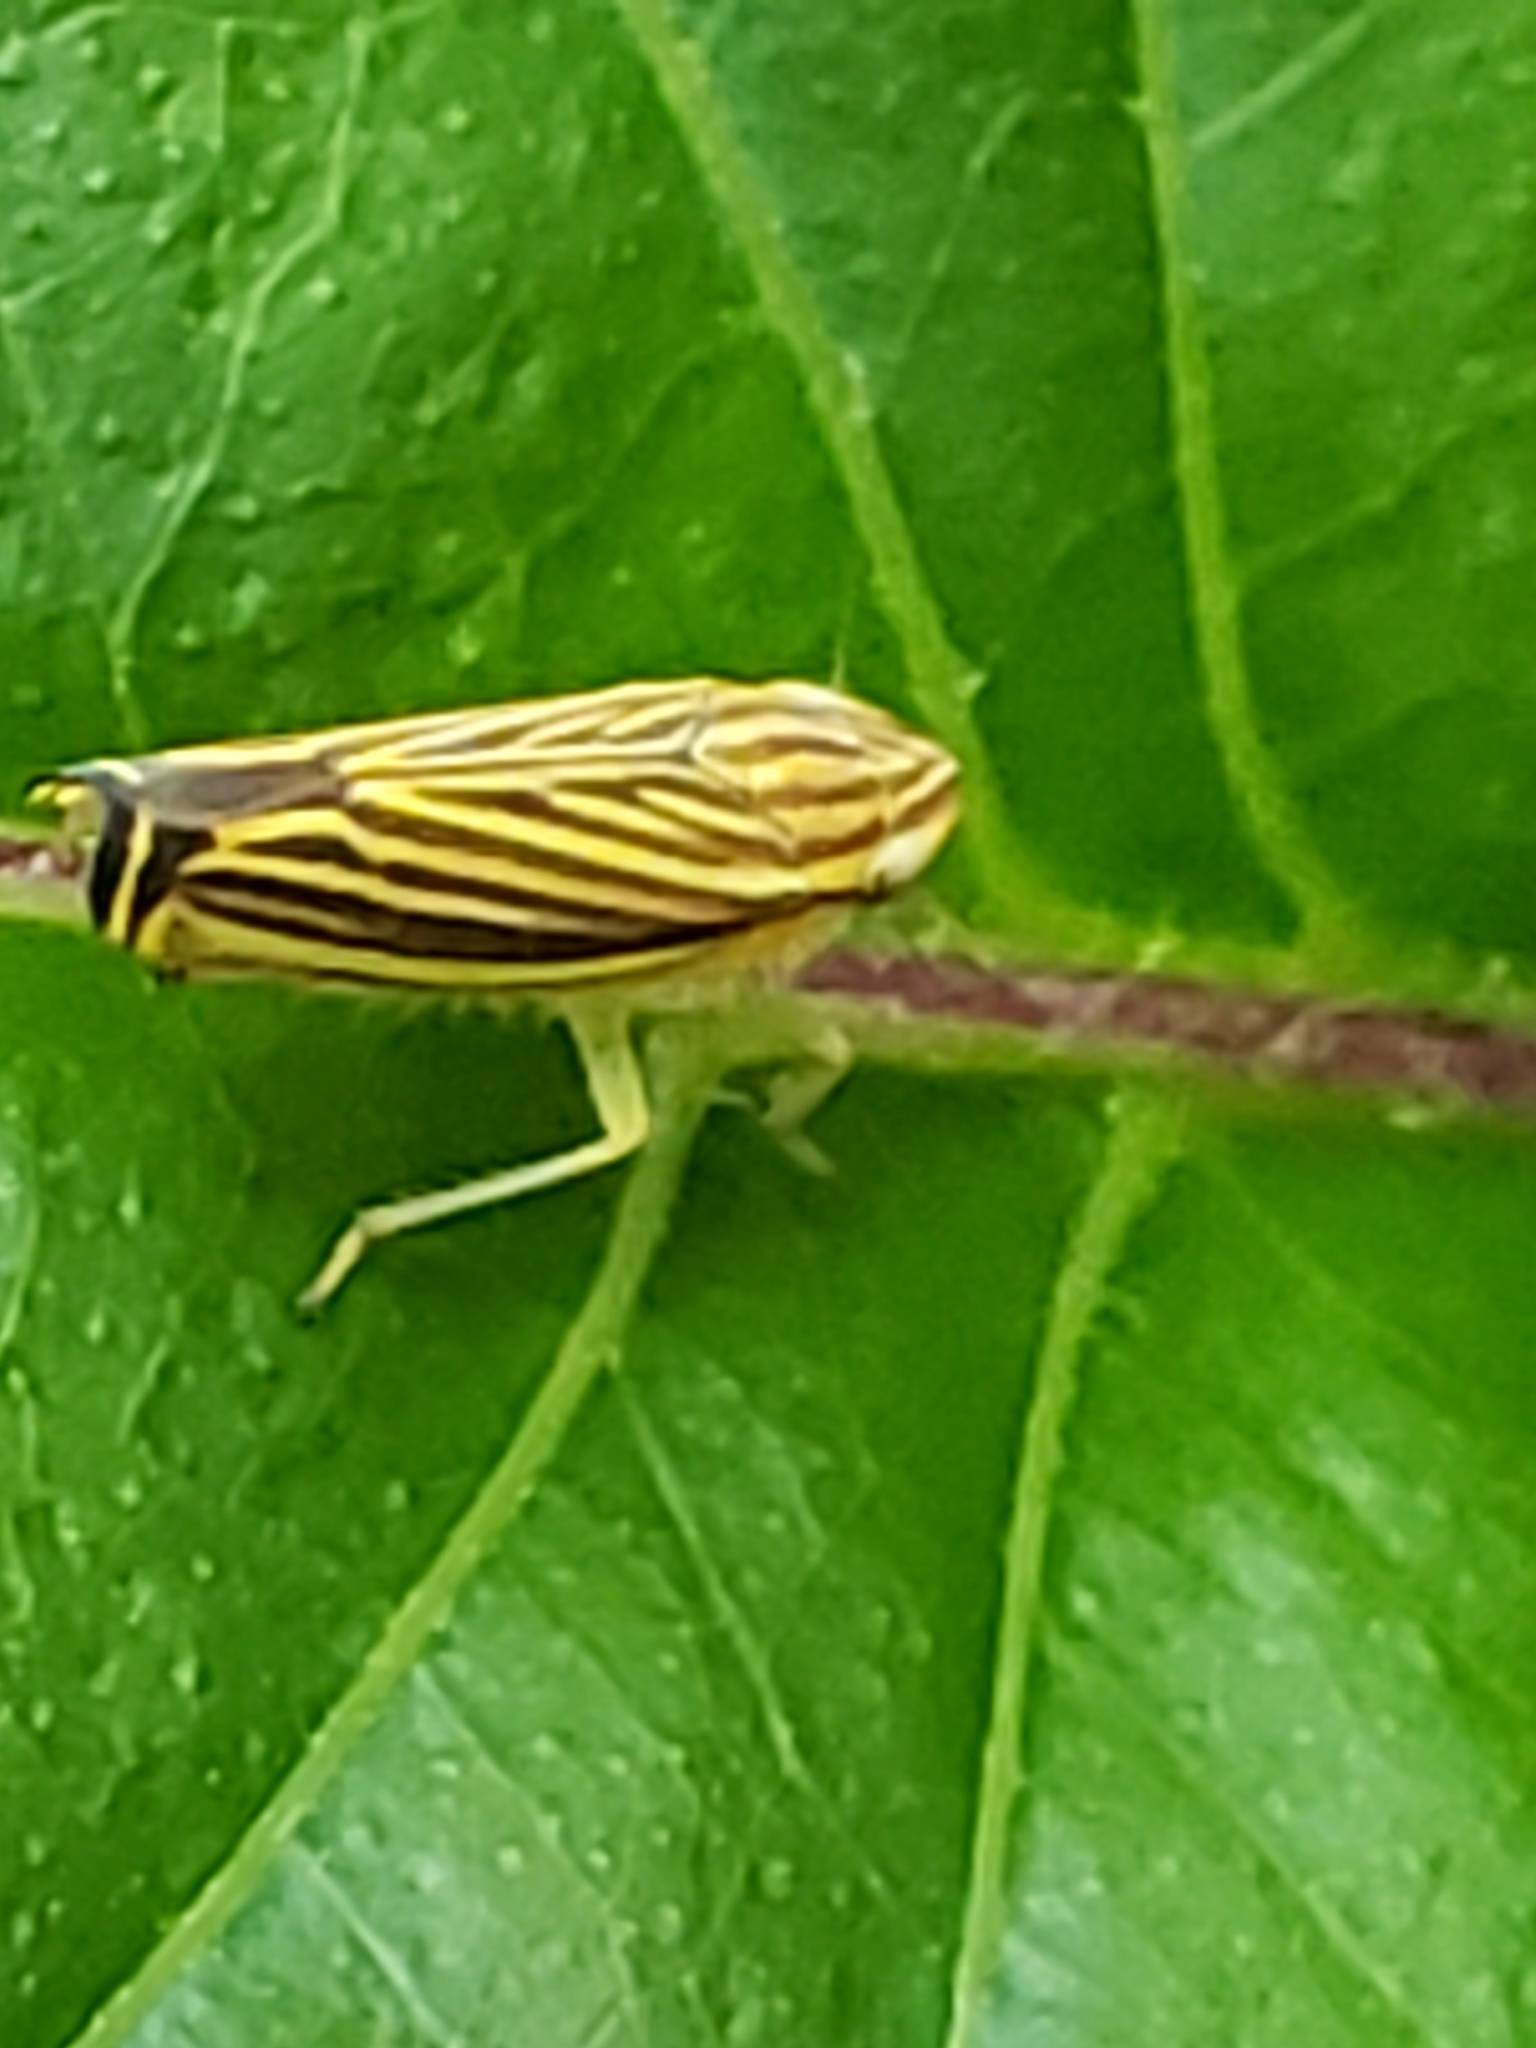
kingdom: Animalia
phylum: Arthropoda
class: Insecta
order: Hemiptera
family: Cicadellidae
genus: Sibovia
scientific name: Sibovia occatoria
